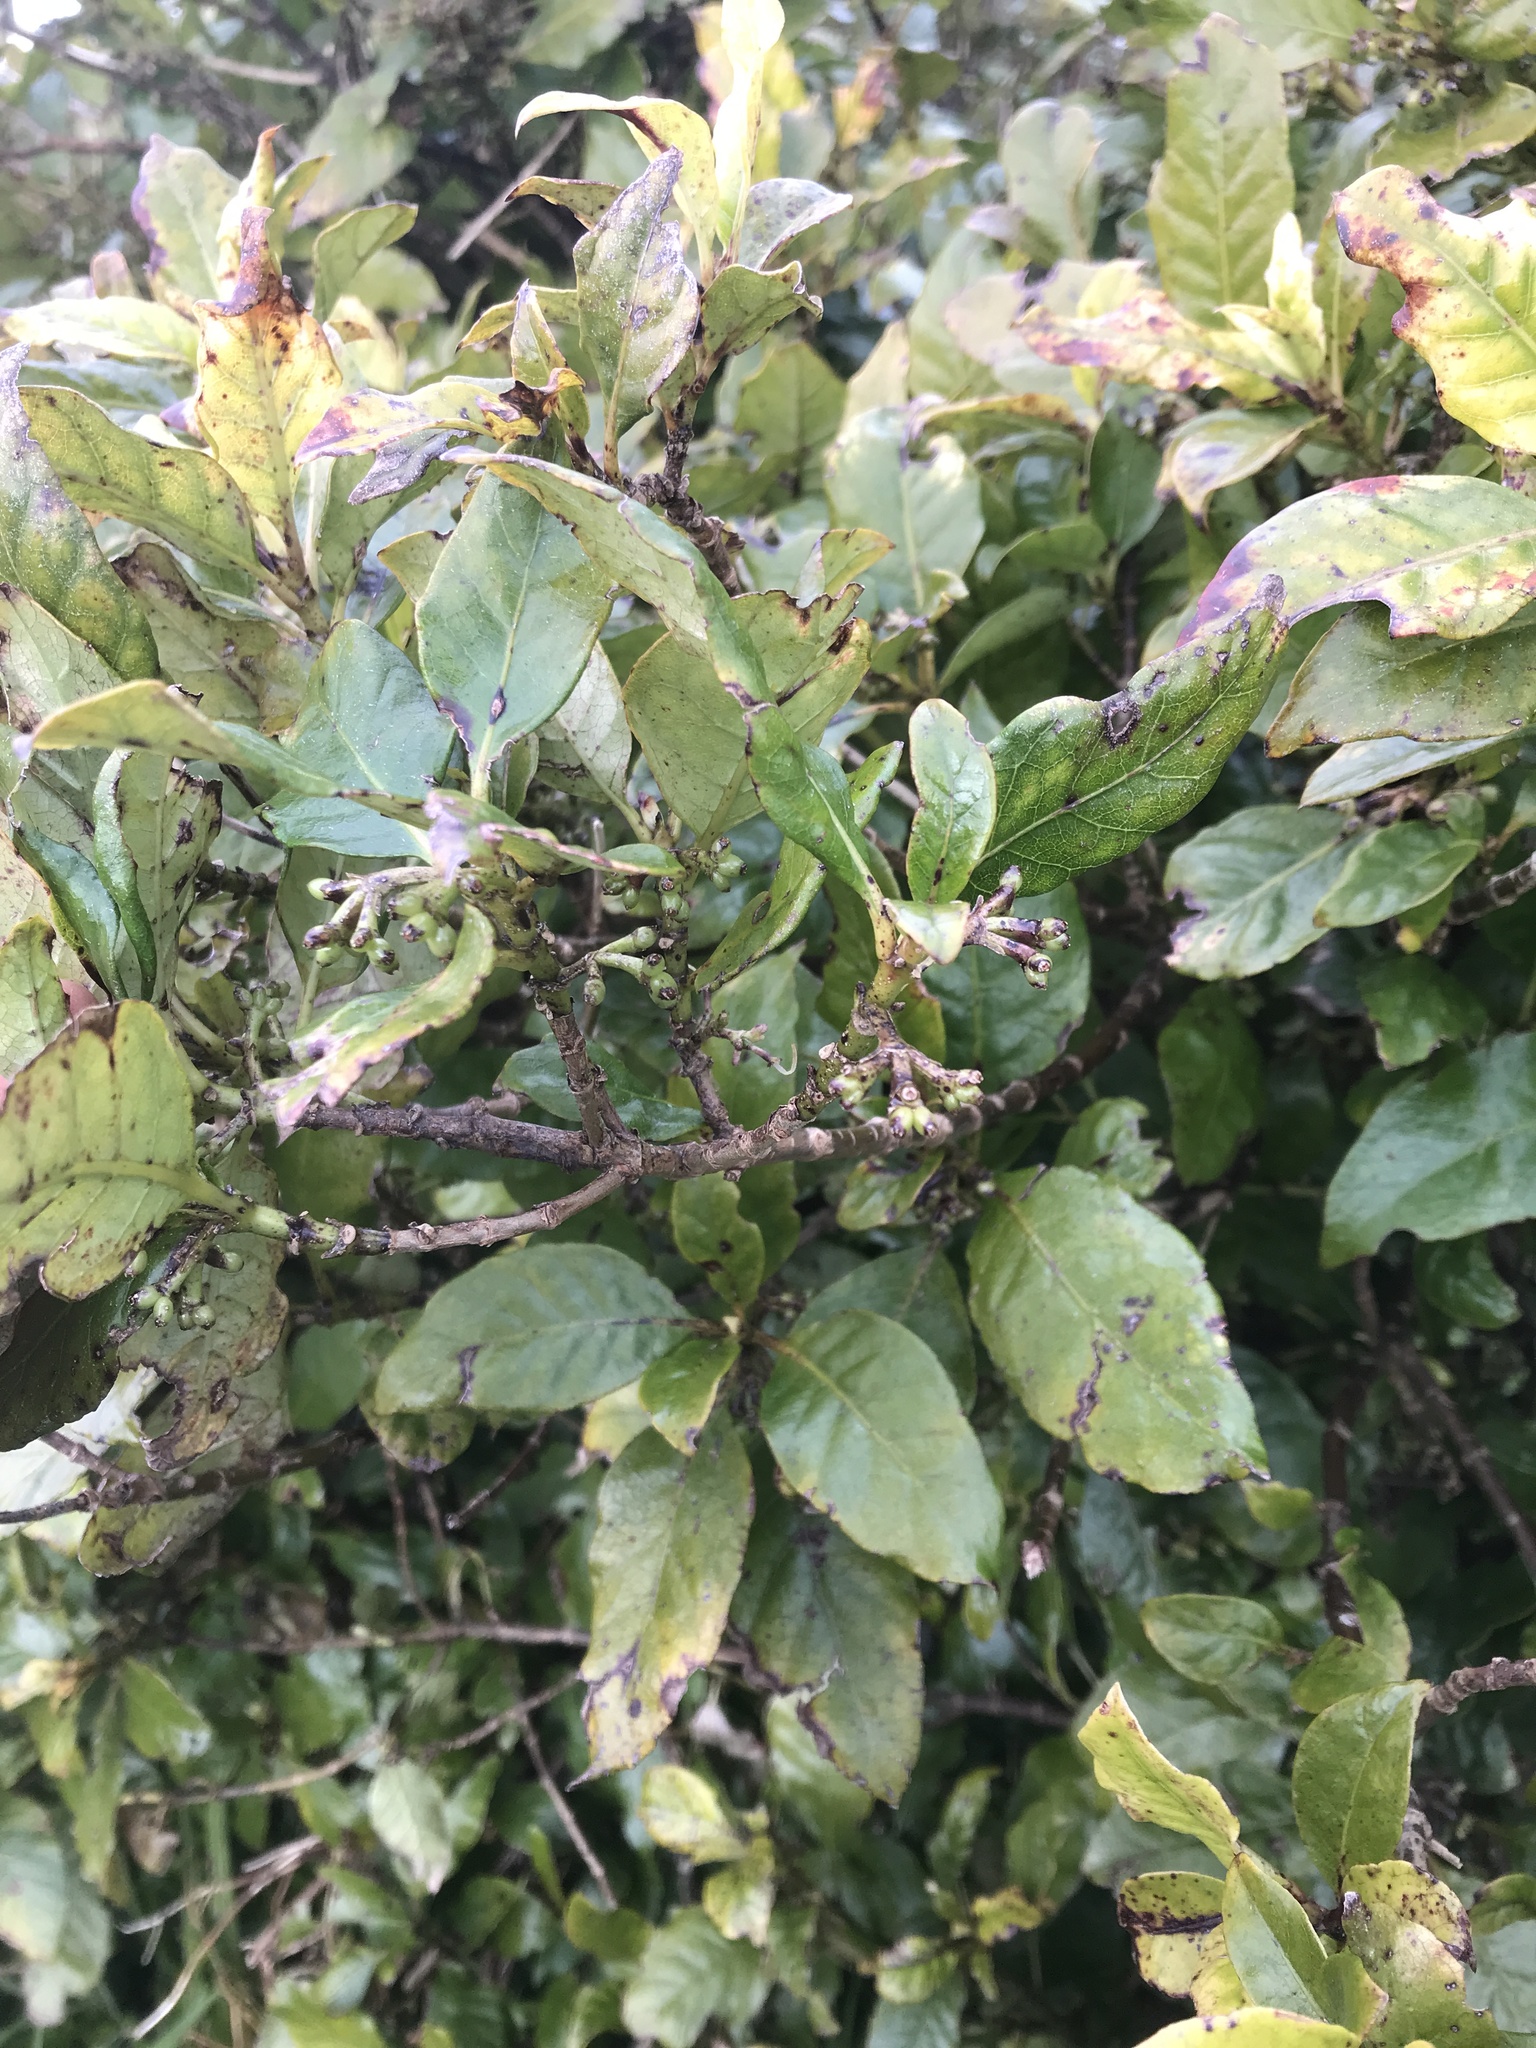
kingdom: Plantae
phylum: Tracheophyta
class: Magnoliopsida
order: Gentianales
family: Rubiaceae
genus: Coprosma
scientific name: Coprosma autumnalis
